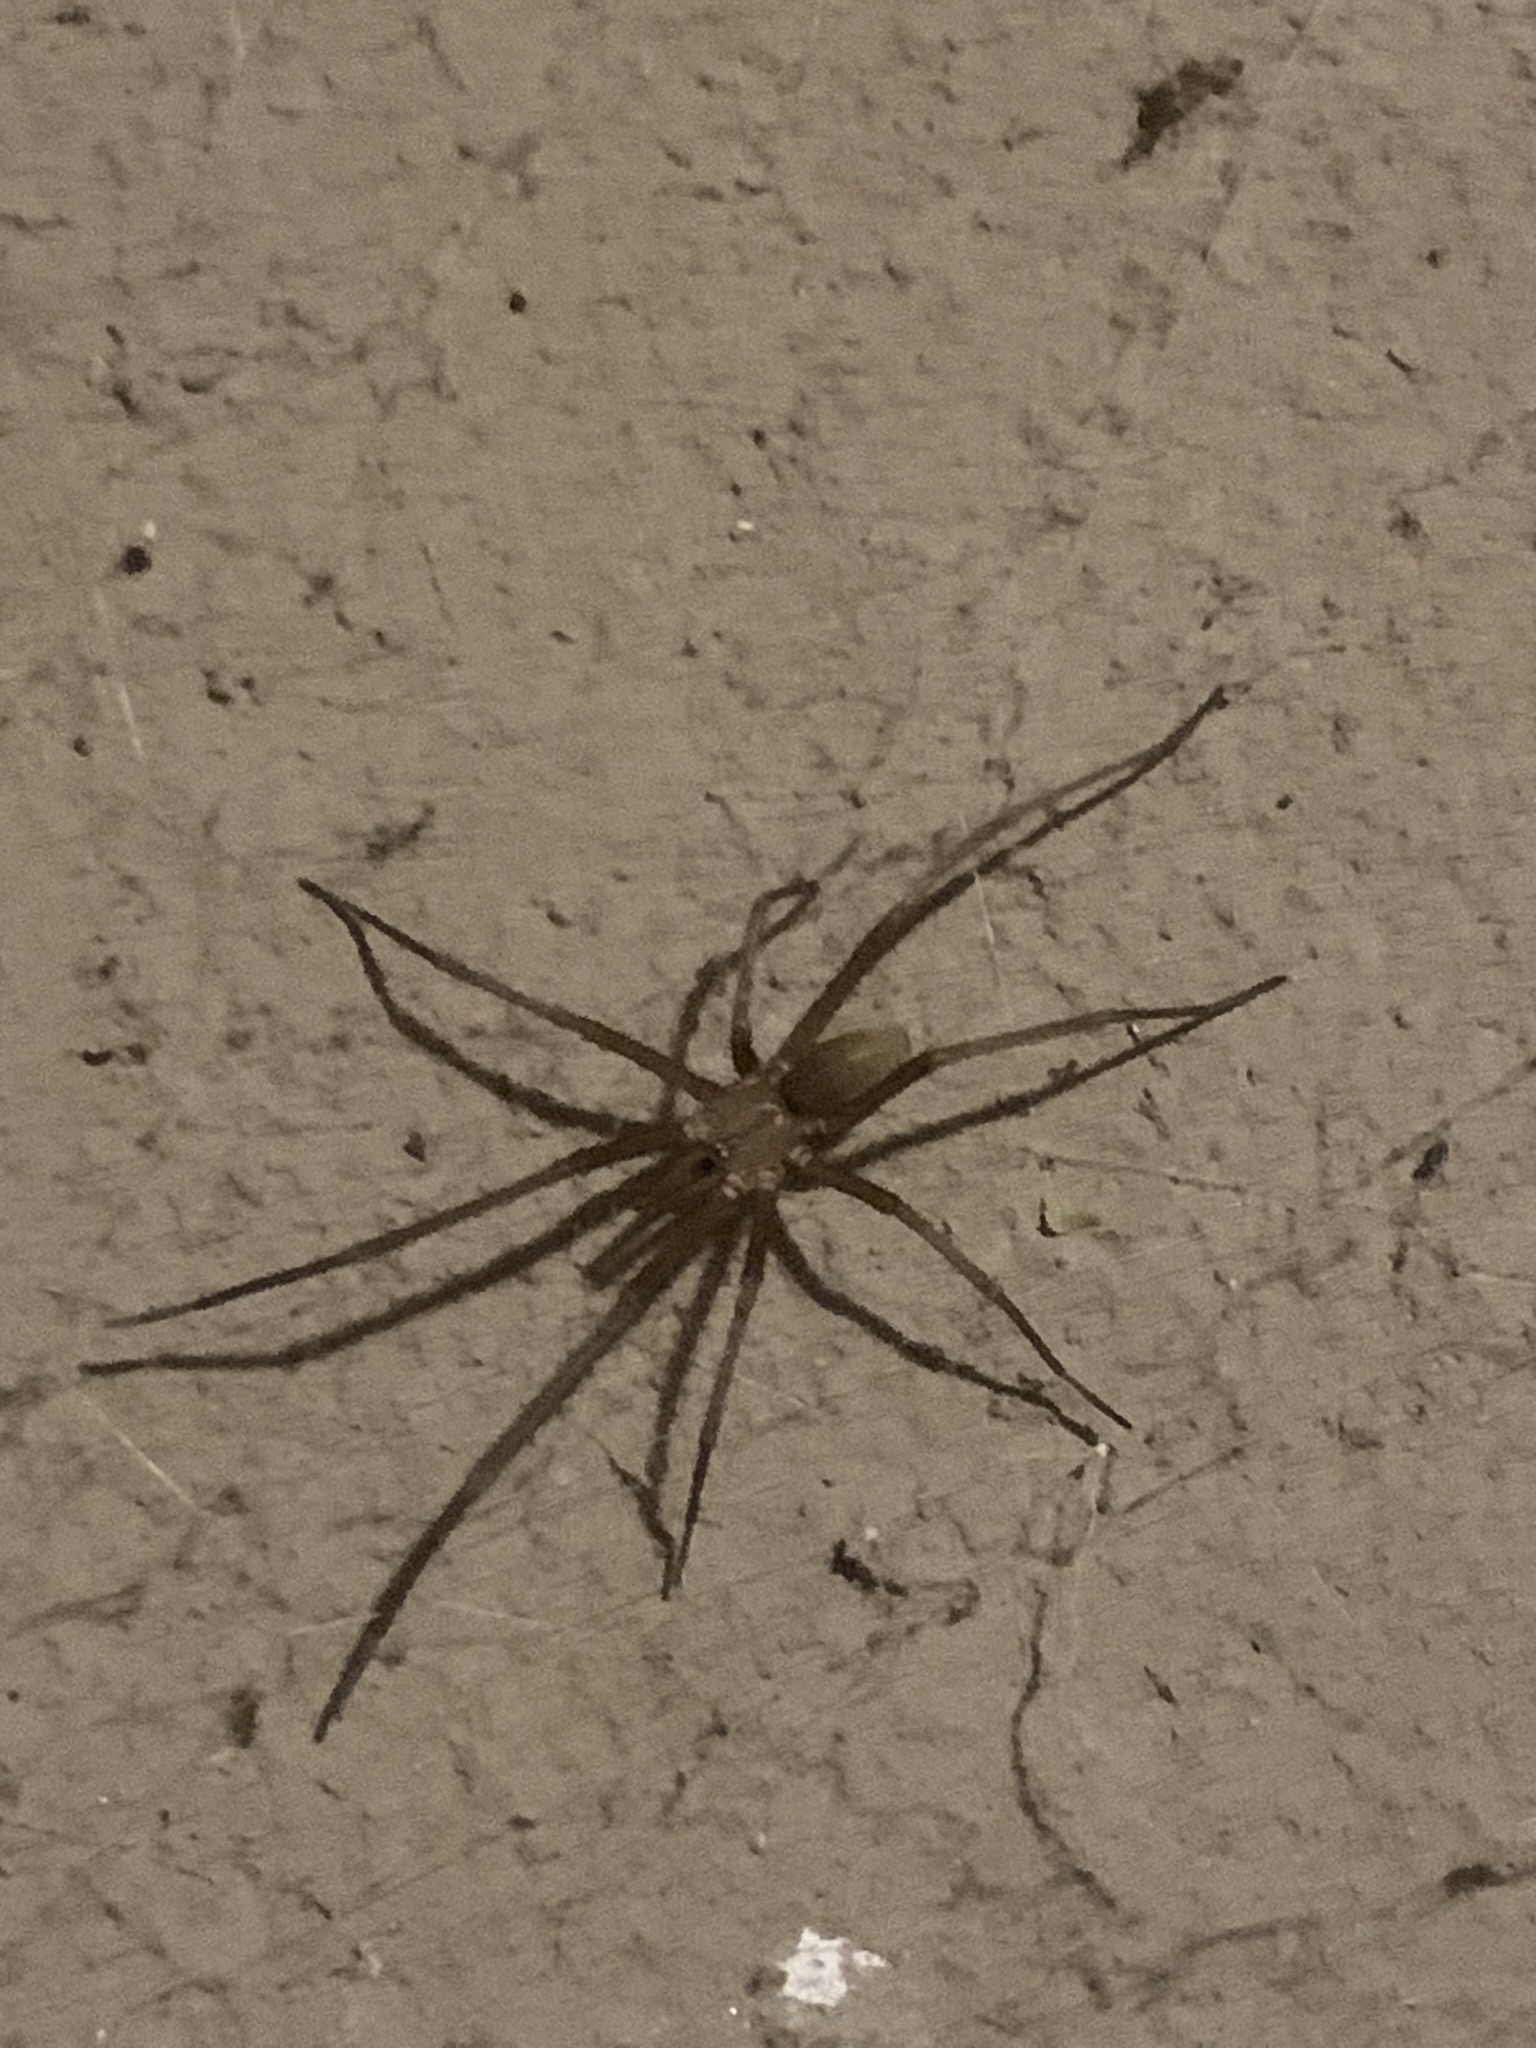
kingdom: Animalia
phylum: Arthropoda
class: Arachnida
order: Araneae
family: Filistatidae
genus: Kukulcania
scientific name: Kukulcania hibernalis
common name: Crevice weaver
